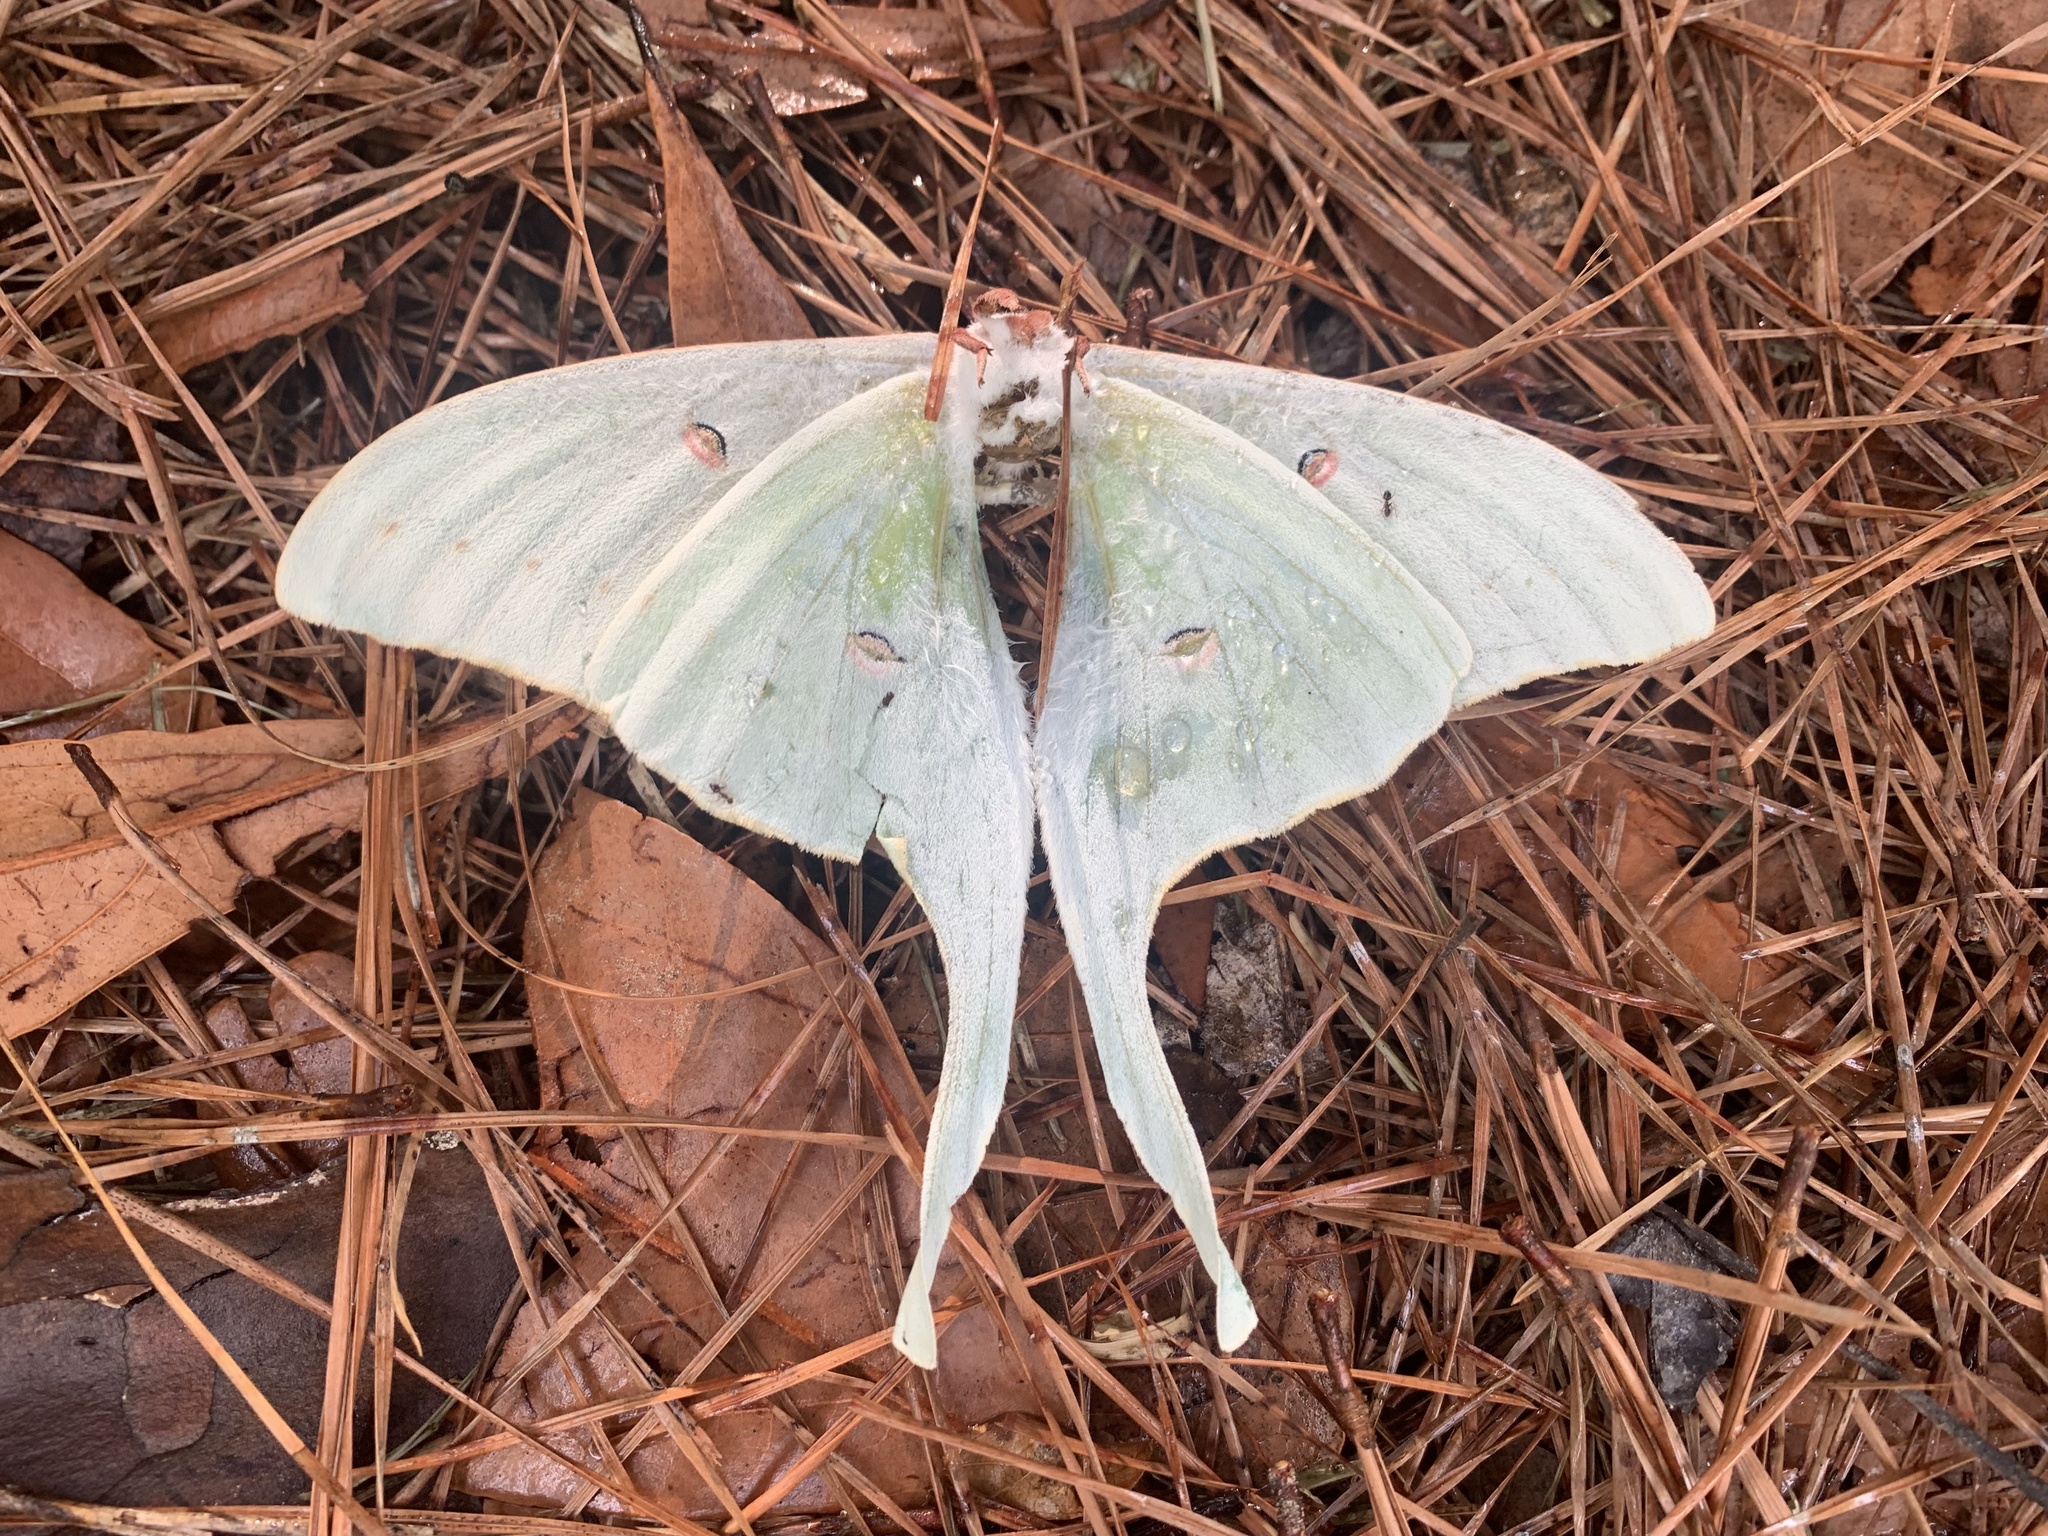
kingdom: Animalia
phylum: Arthropoda
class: Insecta
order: Lepidoptera
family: Saturniidae
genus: Actias
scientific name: Actias luna
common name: Luna moth
